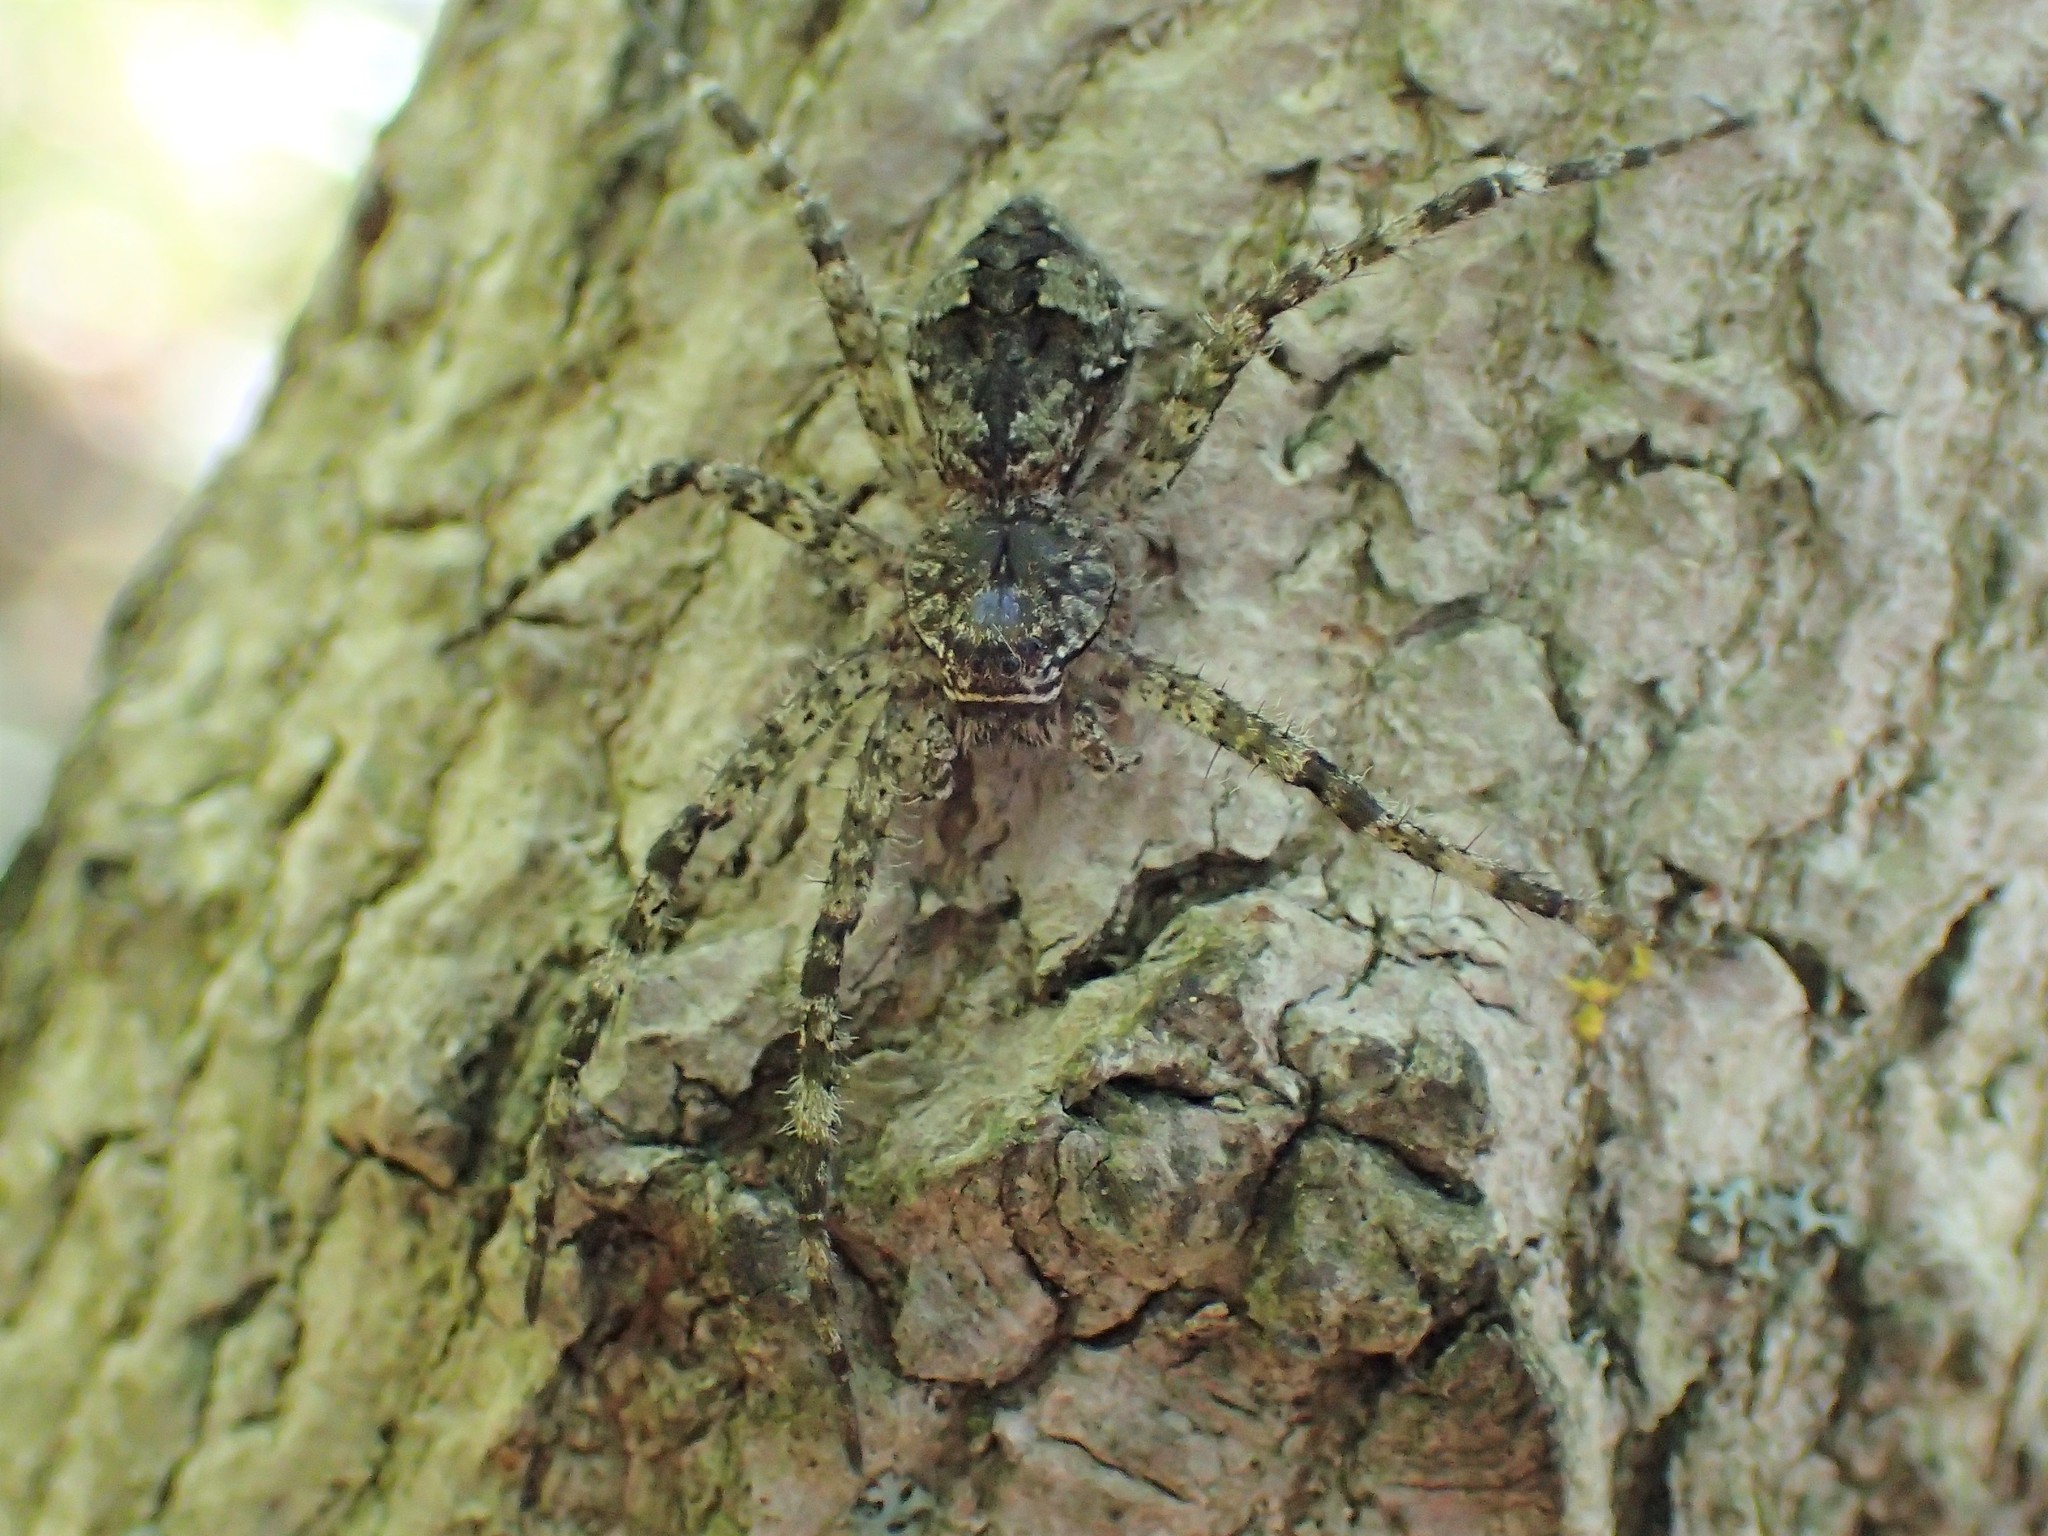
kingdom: Animalia
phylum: Arthropoda
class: Arachnida
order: Araneae
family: Pisauridae
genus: Dolomedes
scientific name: Dolomedes albineus
